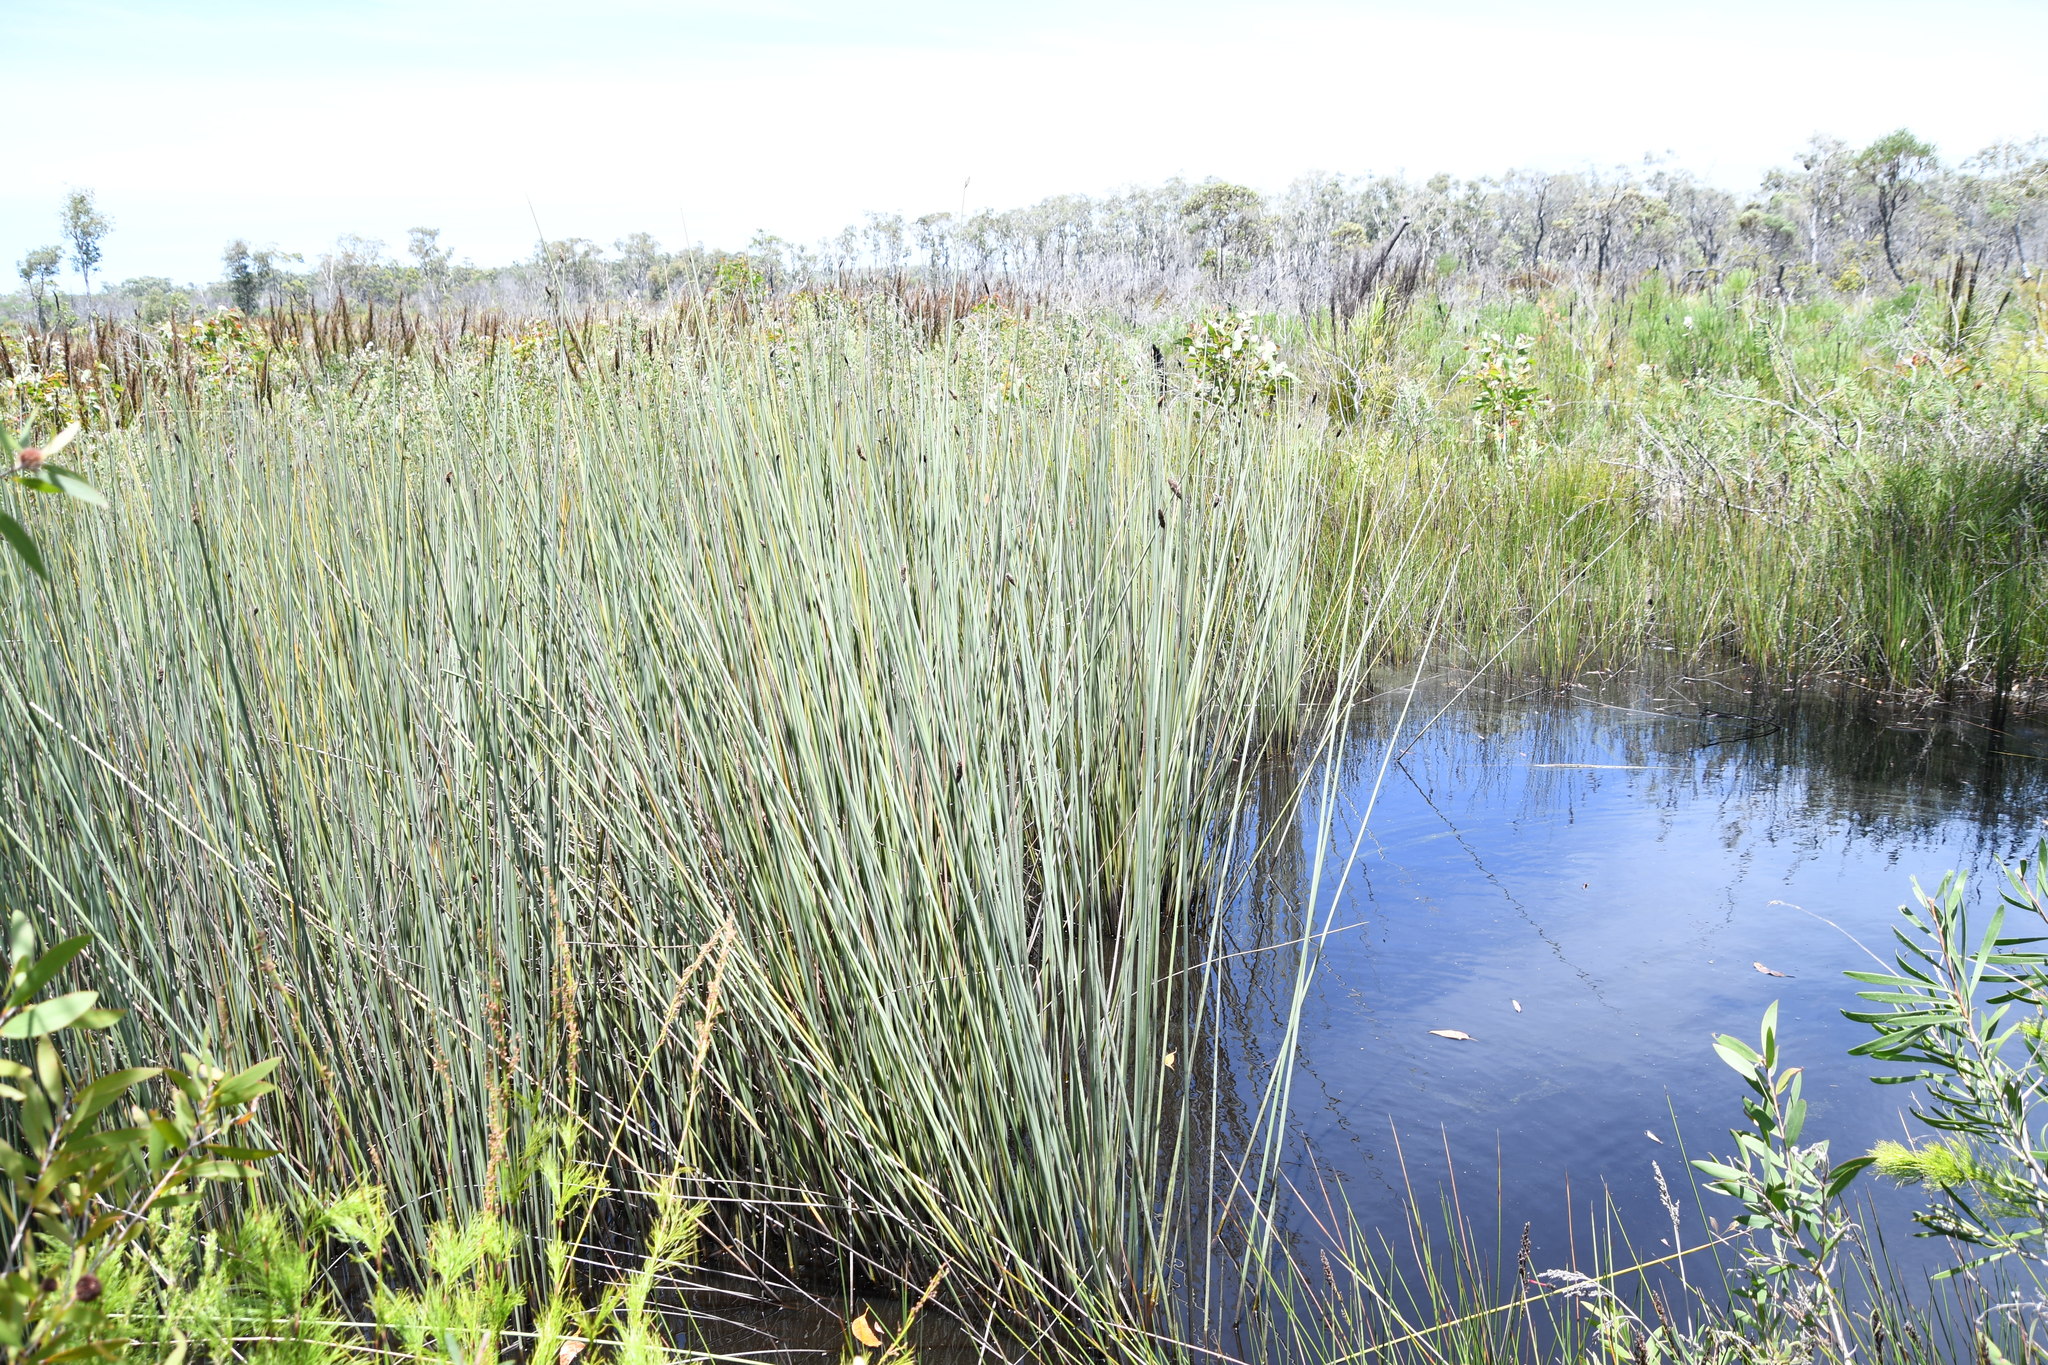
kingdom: Plantae
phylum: Tracheophyta
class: Liliopsida
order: Poales
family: Cyperaceae
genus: Lepironia
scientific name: Lepironia articulata
